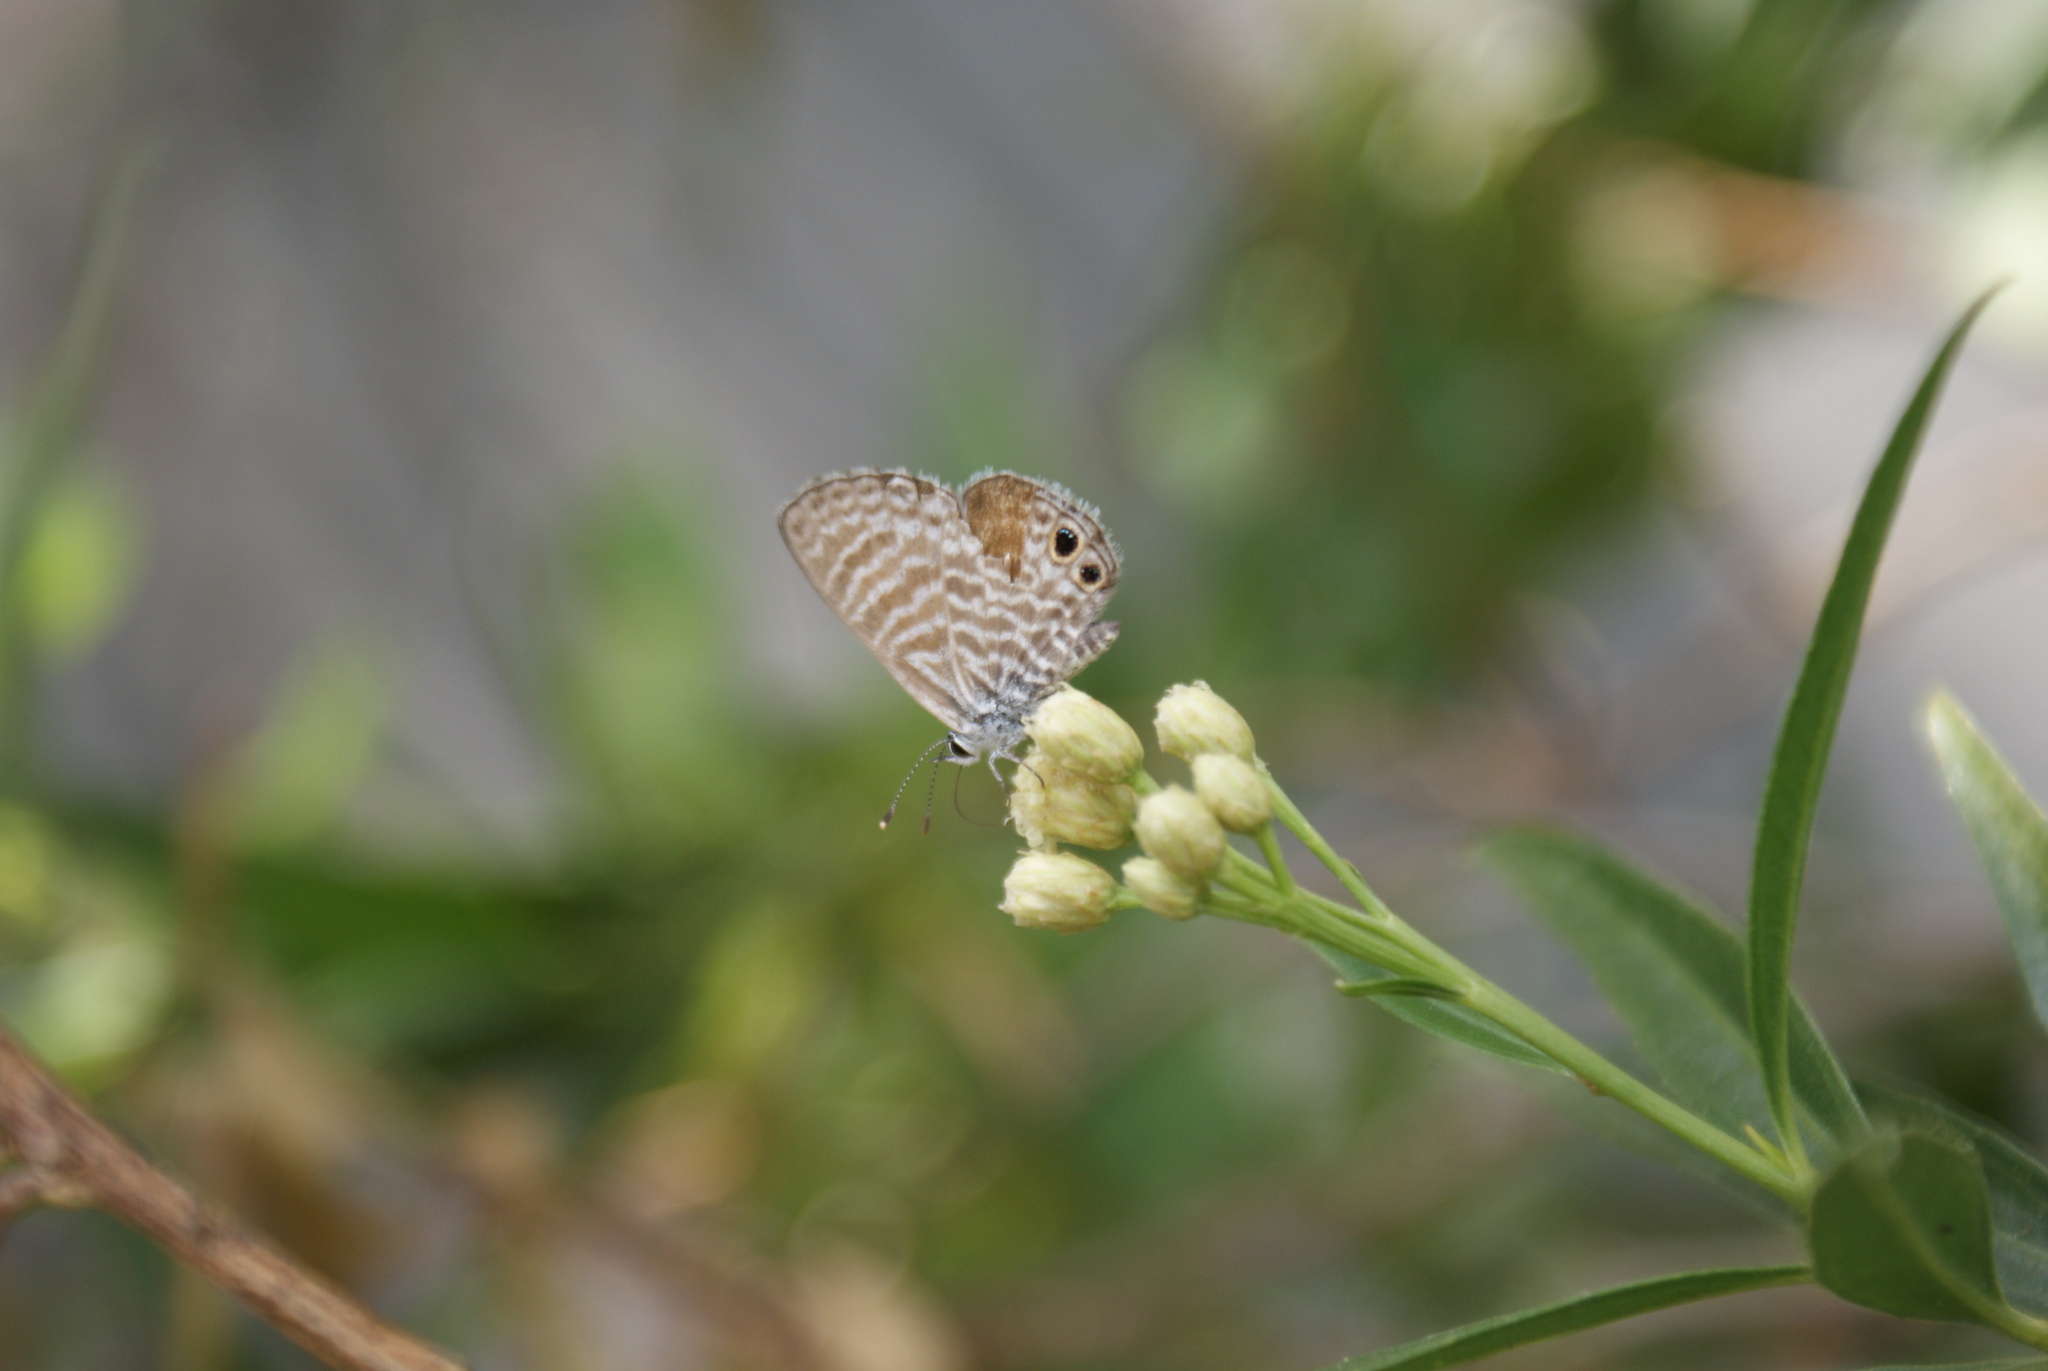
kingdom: Animalia
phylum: Arthropoda
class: Insecta
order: Lepidoptera
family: Lycaenidae
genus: Leptotes
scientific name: Leptotes marina
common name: Marine blue
